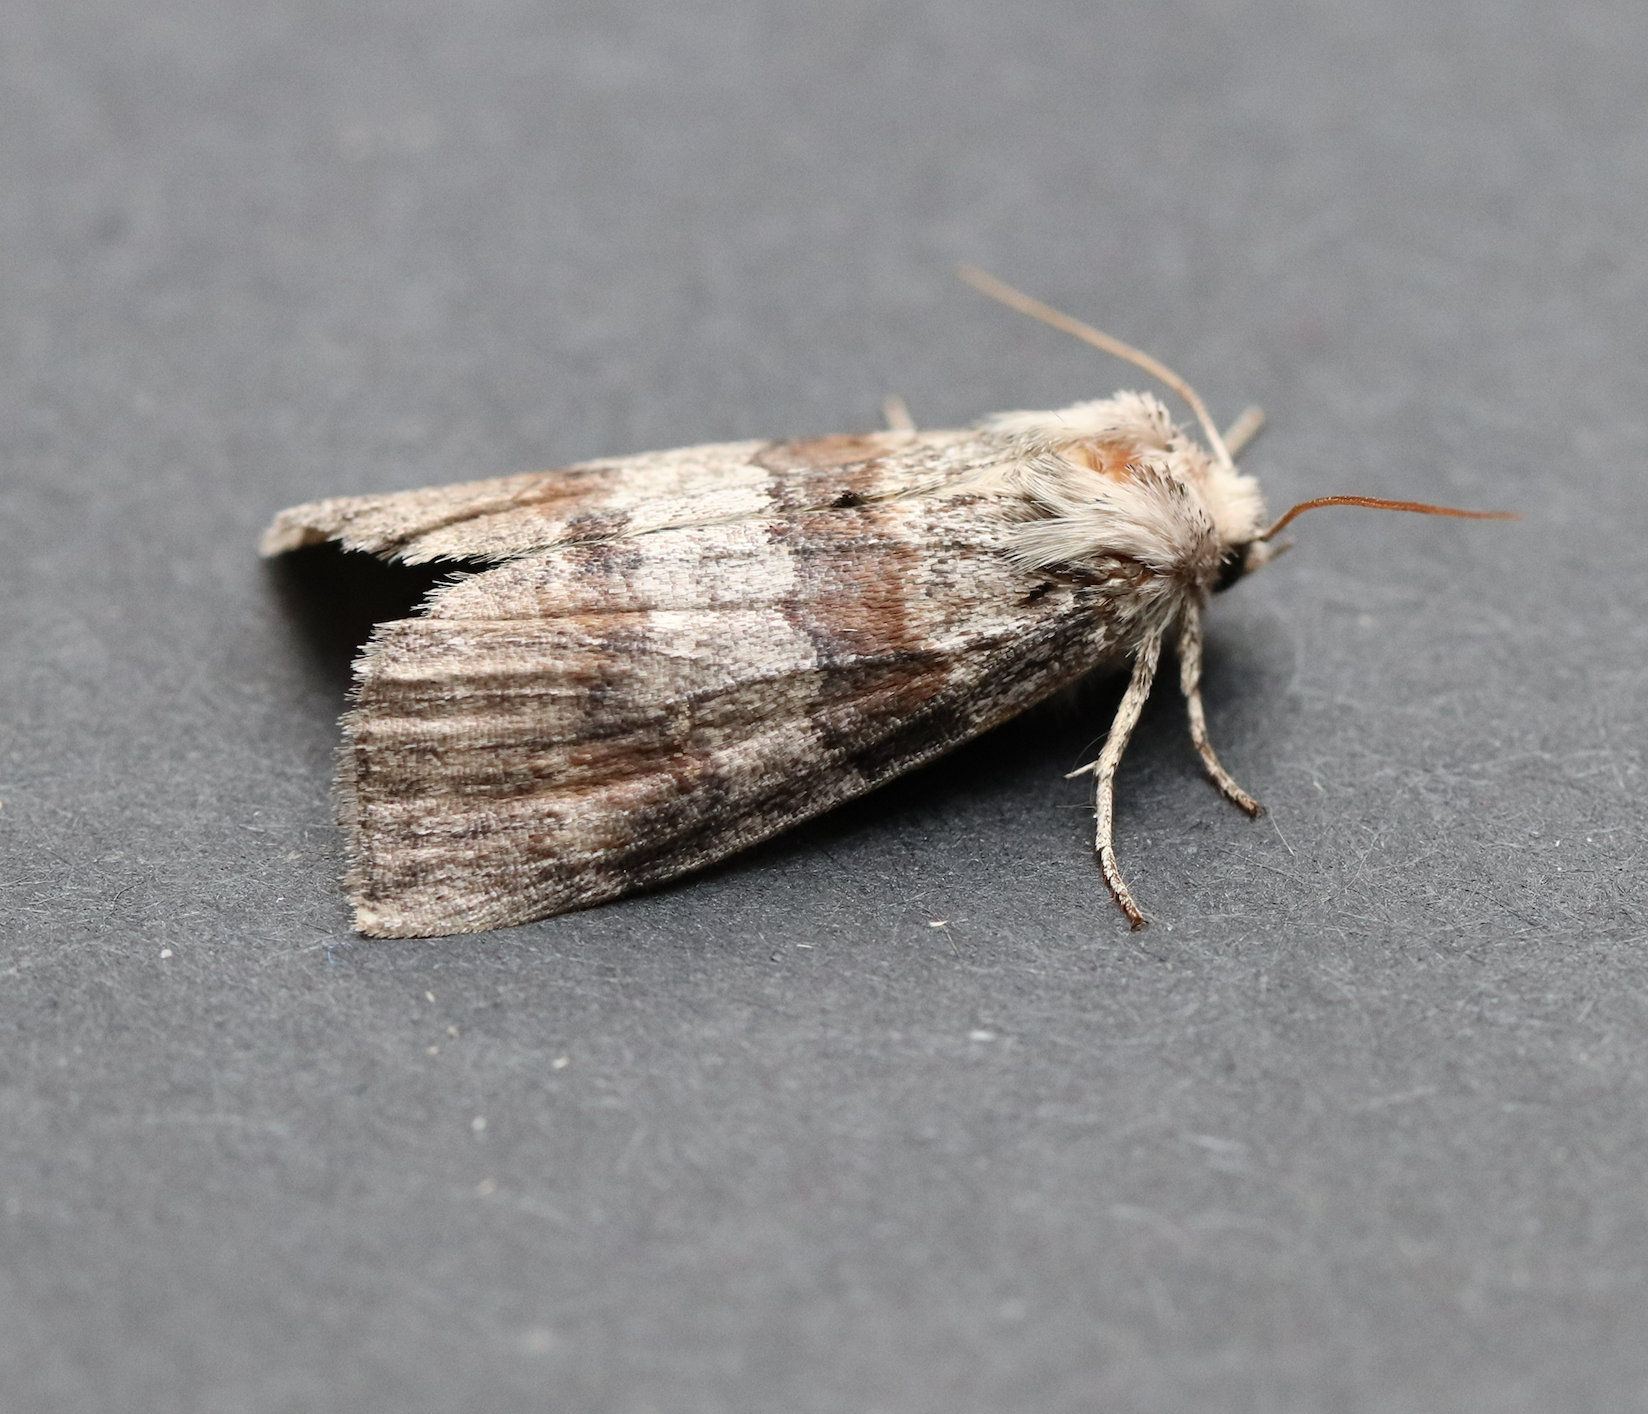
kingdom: Animalia
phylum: Arthropoda
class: Insecta
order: Lepidoptera
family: Drepanidae
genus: Cymatophorina
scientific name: Cymatophorina diluta
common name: Oak lutestring
